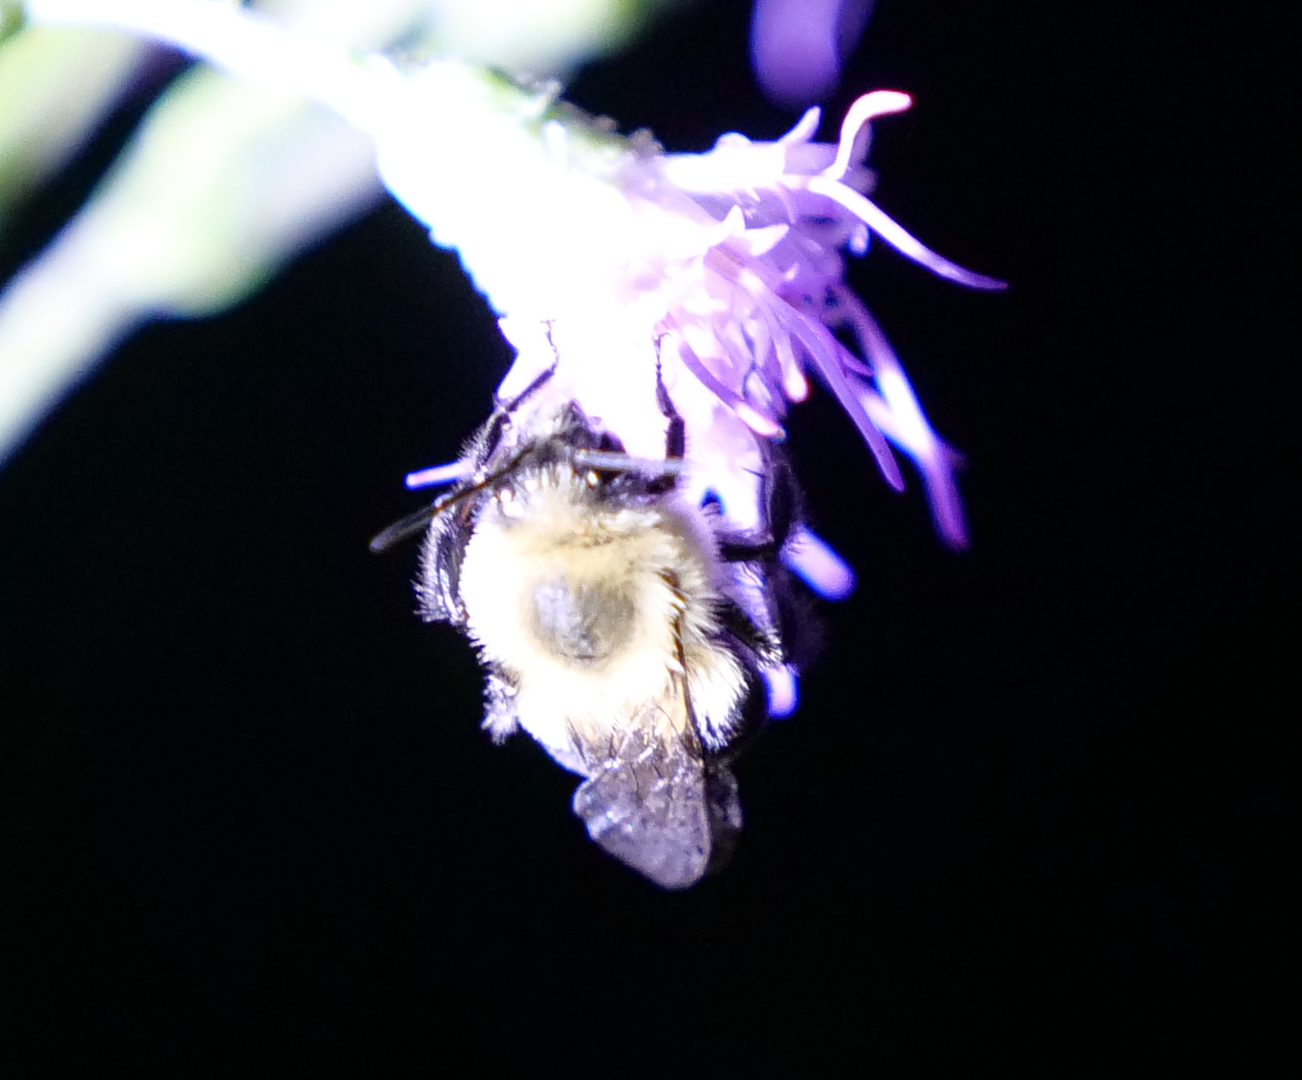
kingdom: Animalia
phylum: Arthropoda
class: Insecta
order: Hymenoptera
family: Apidae
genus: Bombus
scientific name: Bombus impatiens
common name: Common eastern bumble bee
